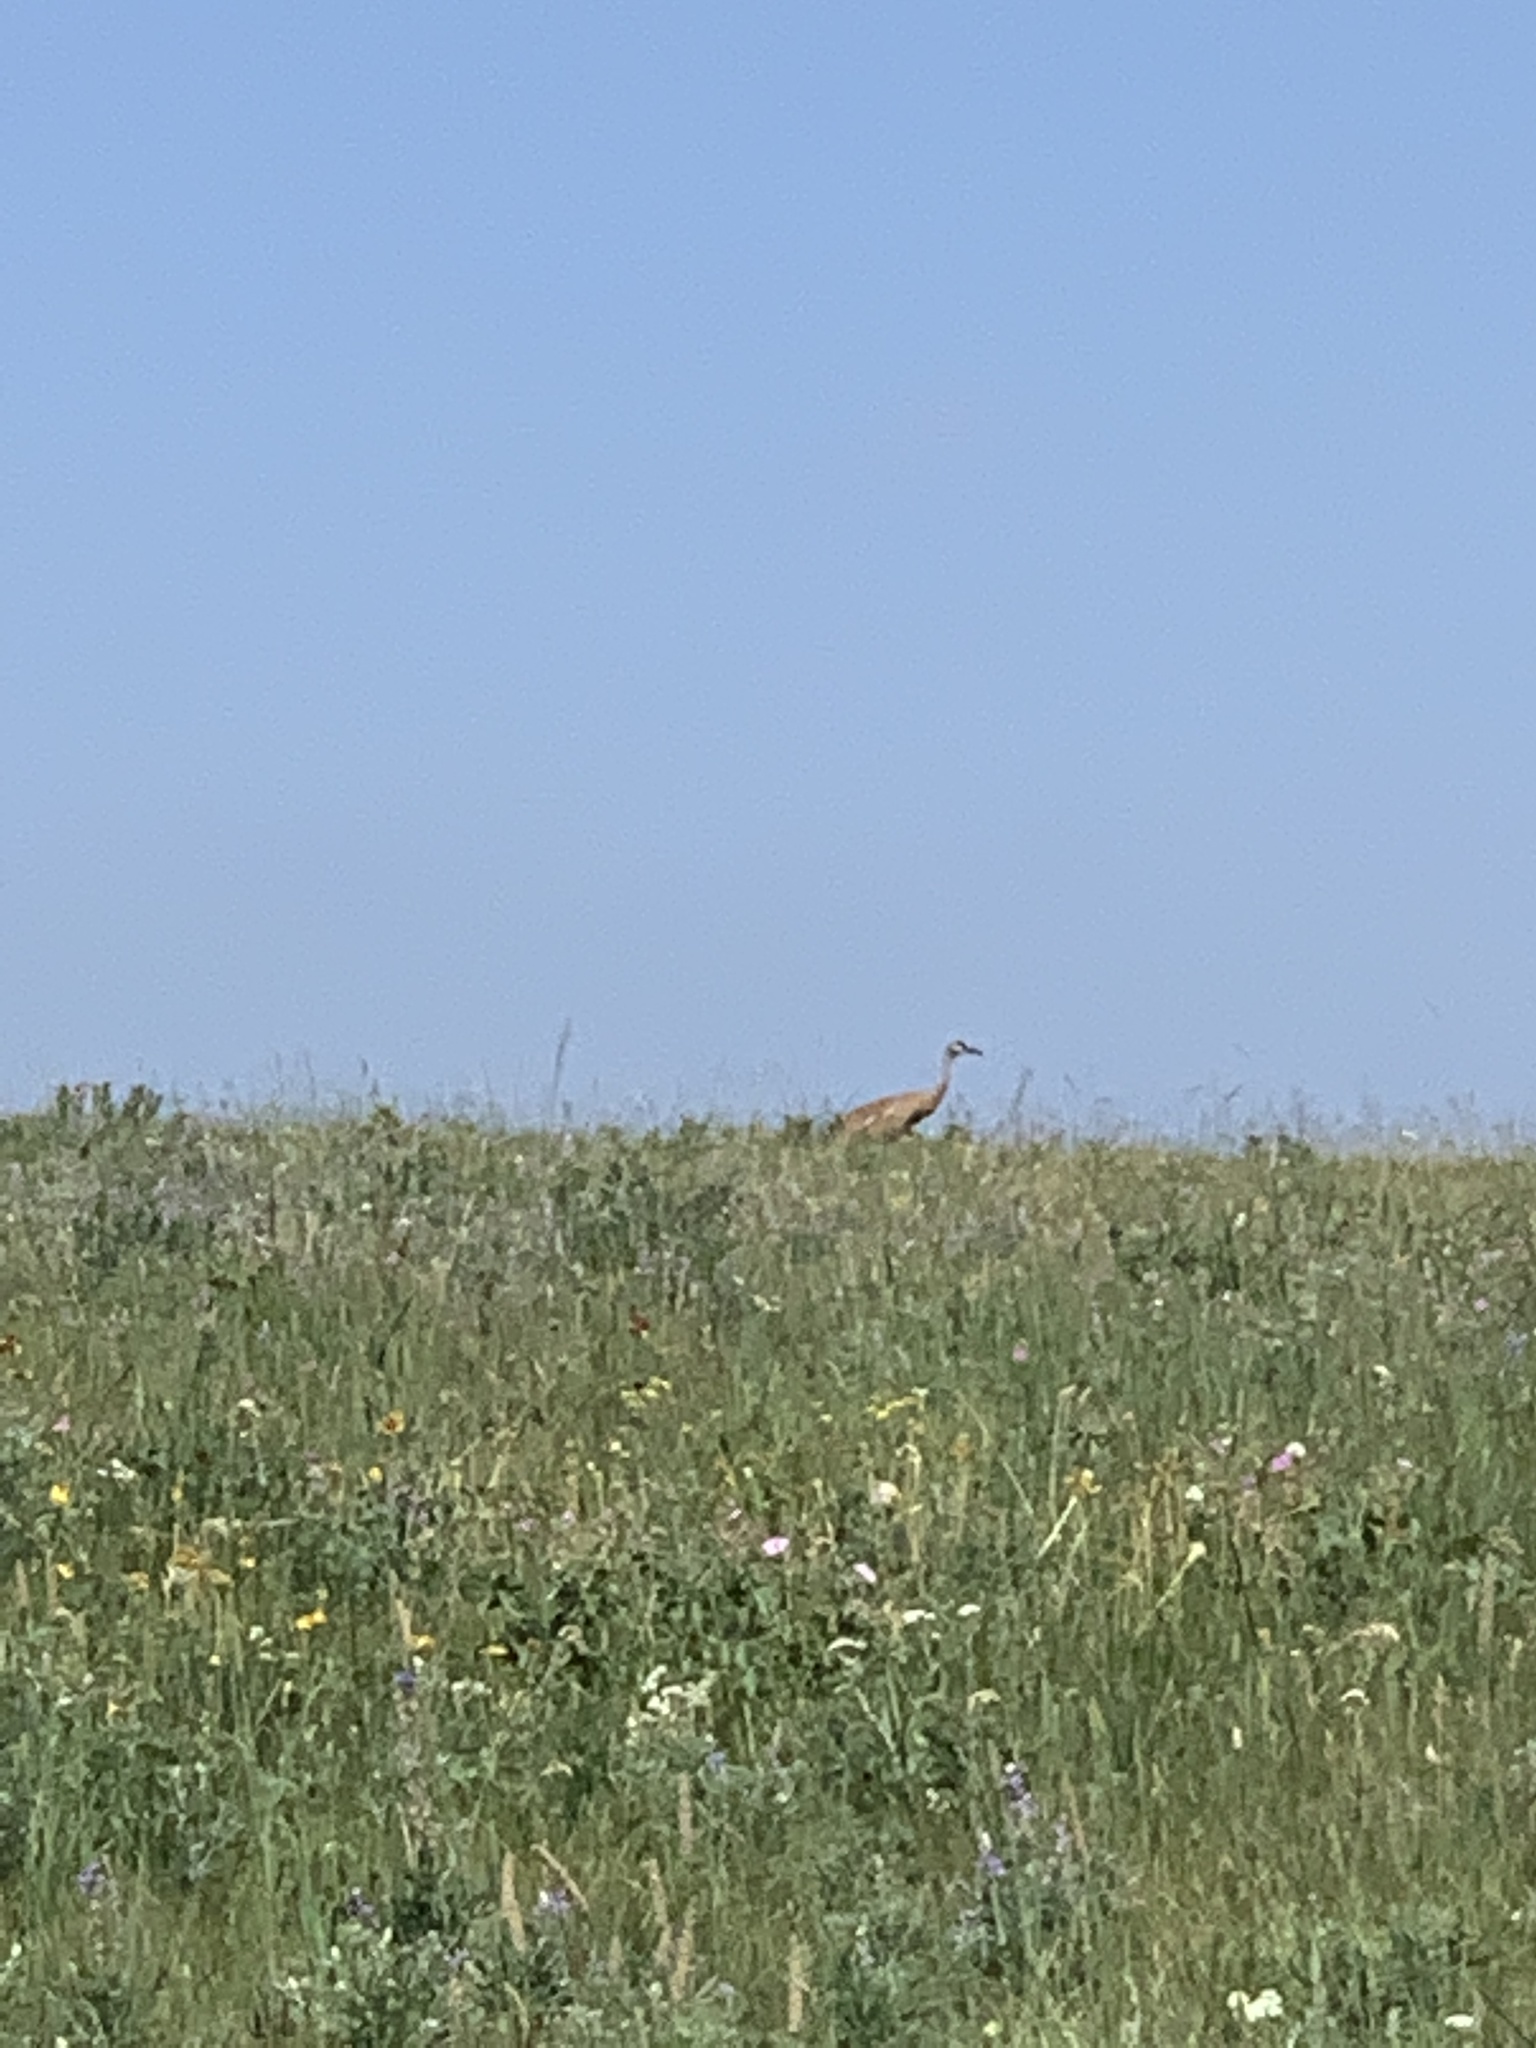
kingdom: Animalia
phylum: Chordata
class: Aves
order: Gruiformes
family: Gruidae
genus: Grus
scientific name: Grus canadensis
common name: Sandhill crane
